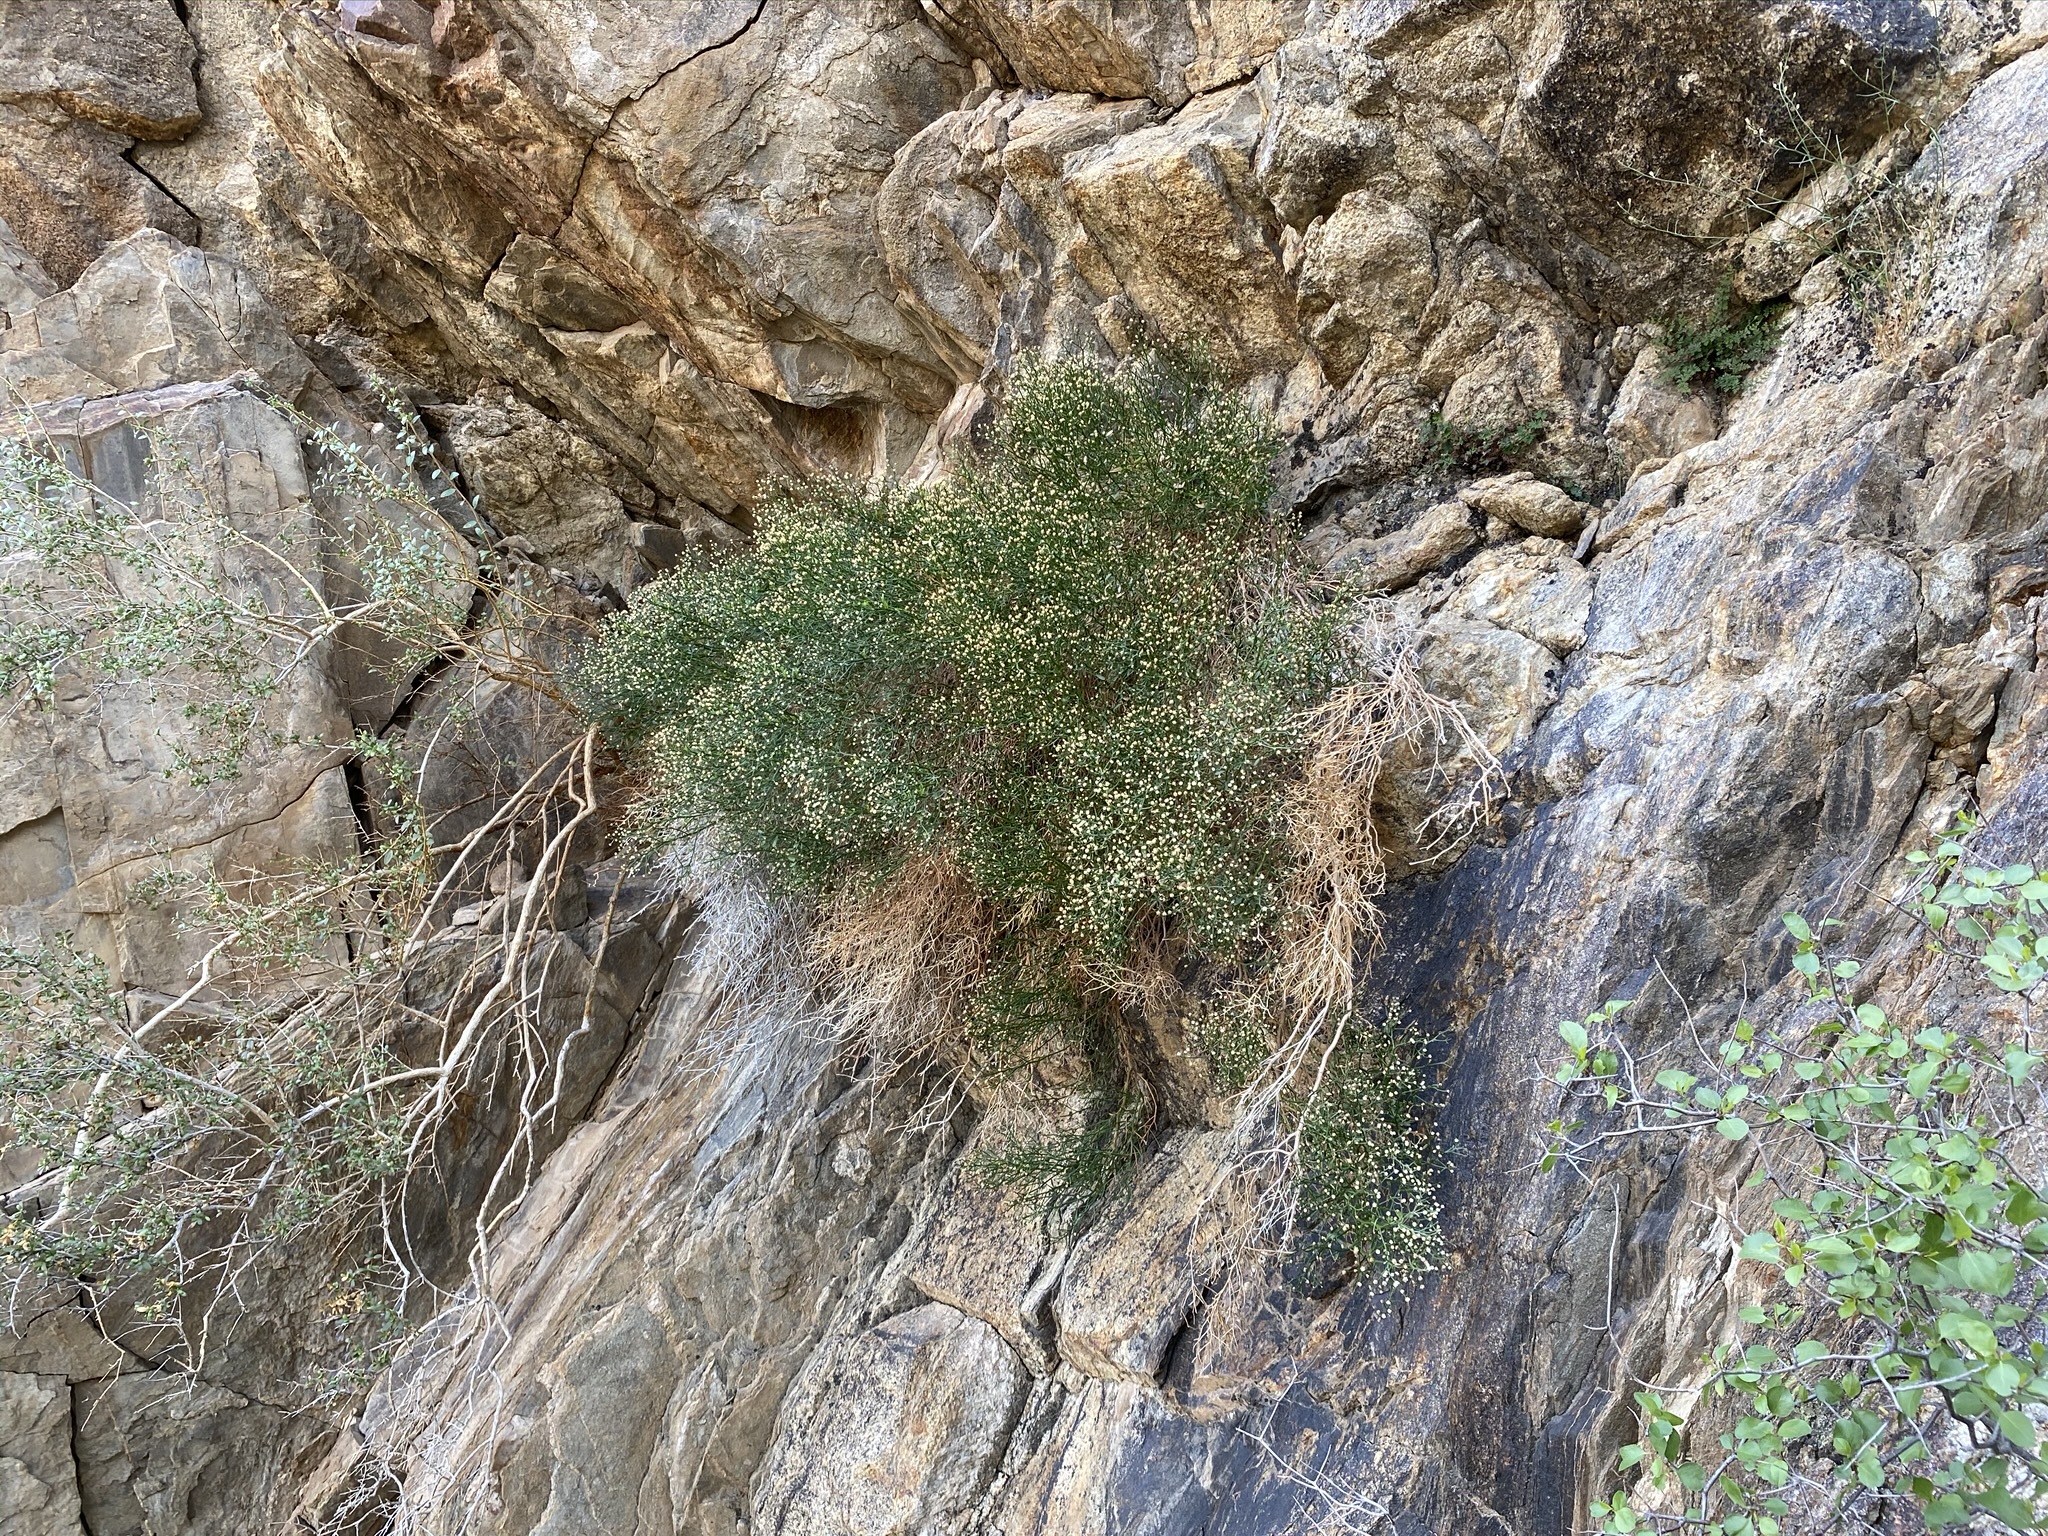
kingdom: Plantae
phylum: Tracheophyta
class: Magnoliopsida
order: Asterales
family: Asteraceae
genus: Baccharis
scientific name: Baccharis sergiloides
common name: Desert baccharis
